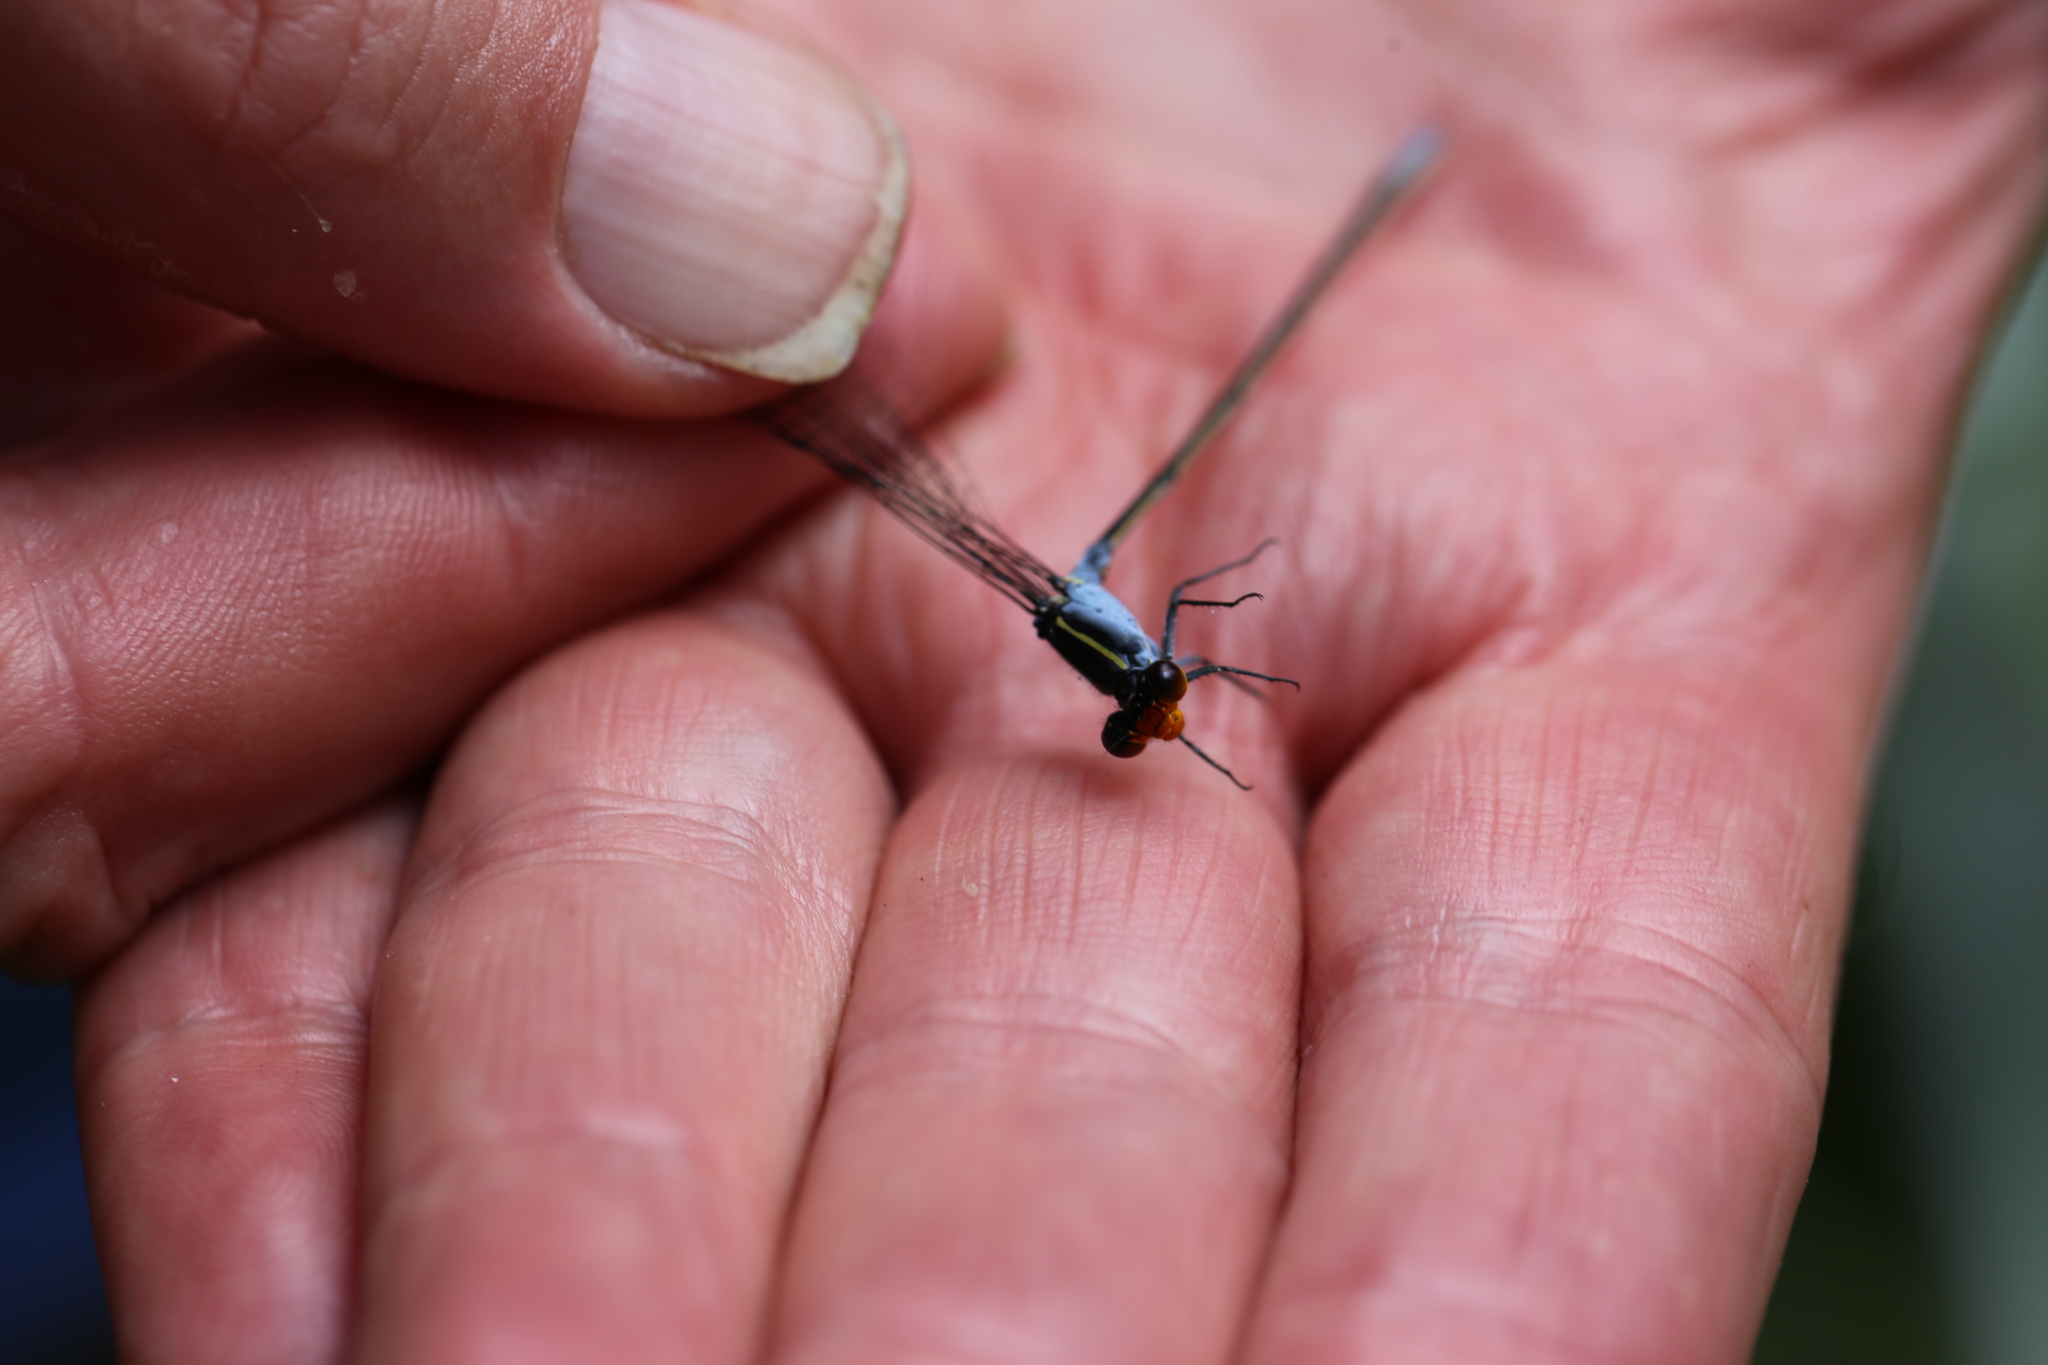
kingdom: Animalia
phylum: Arthropoda
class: Insecta
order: Odonata
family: Coenagrionidae
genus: Pseudagrion
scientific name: Pseudagrion ignifer
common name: Flame-headed riverdamsel
